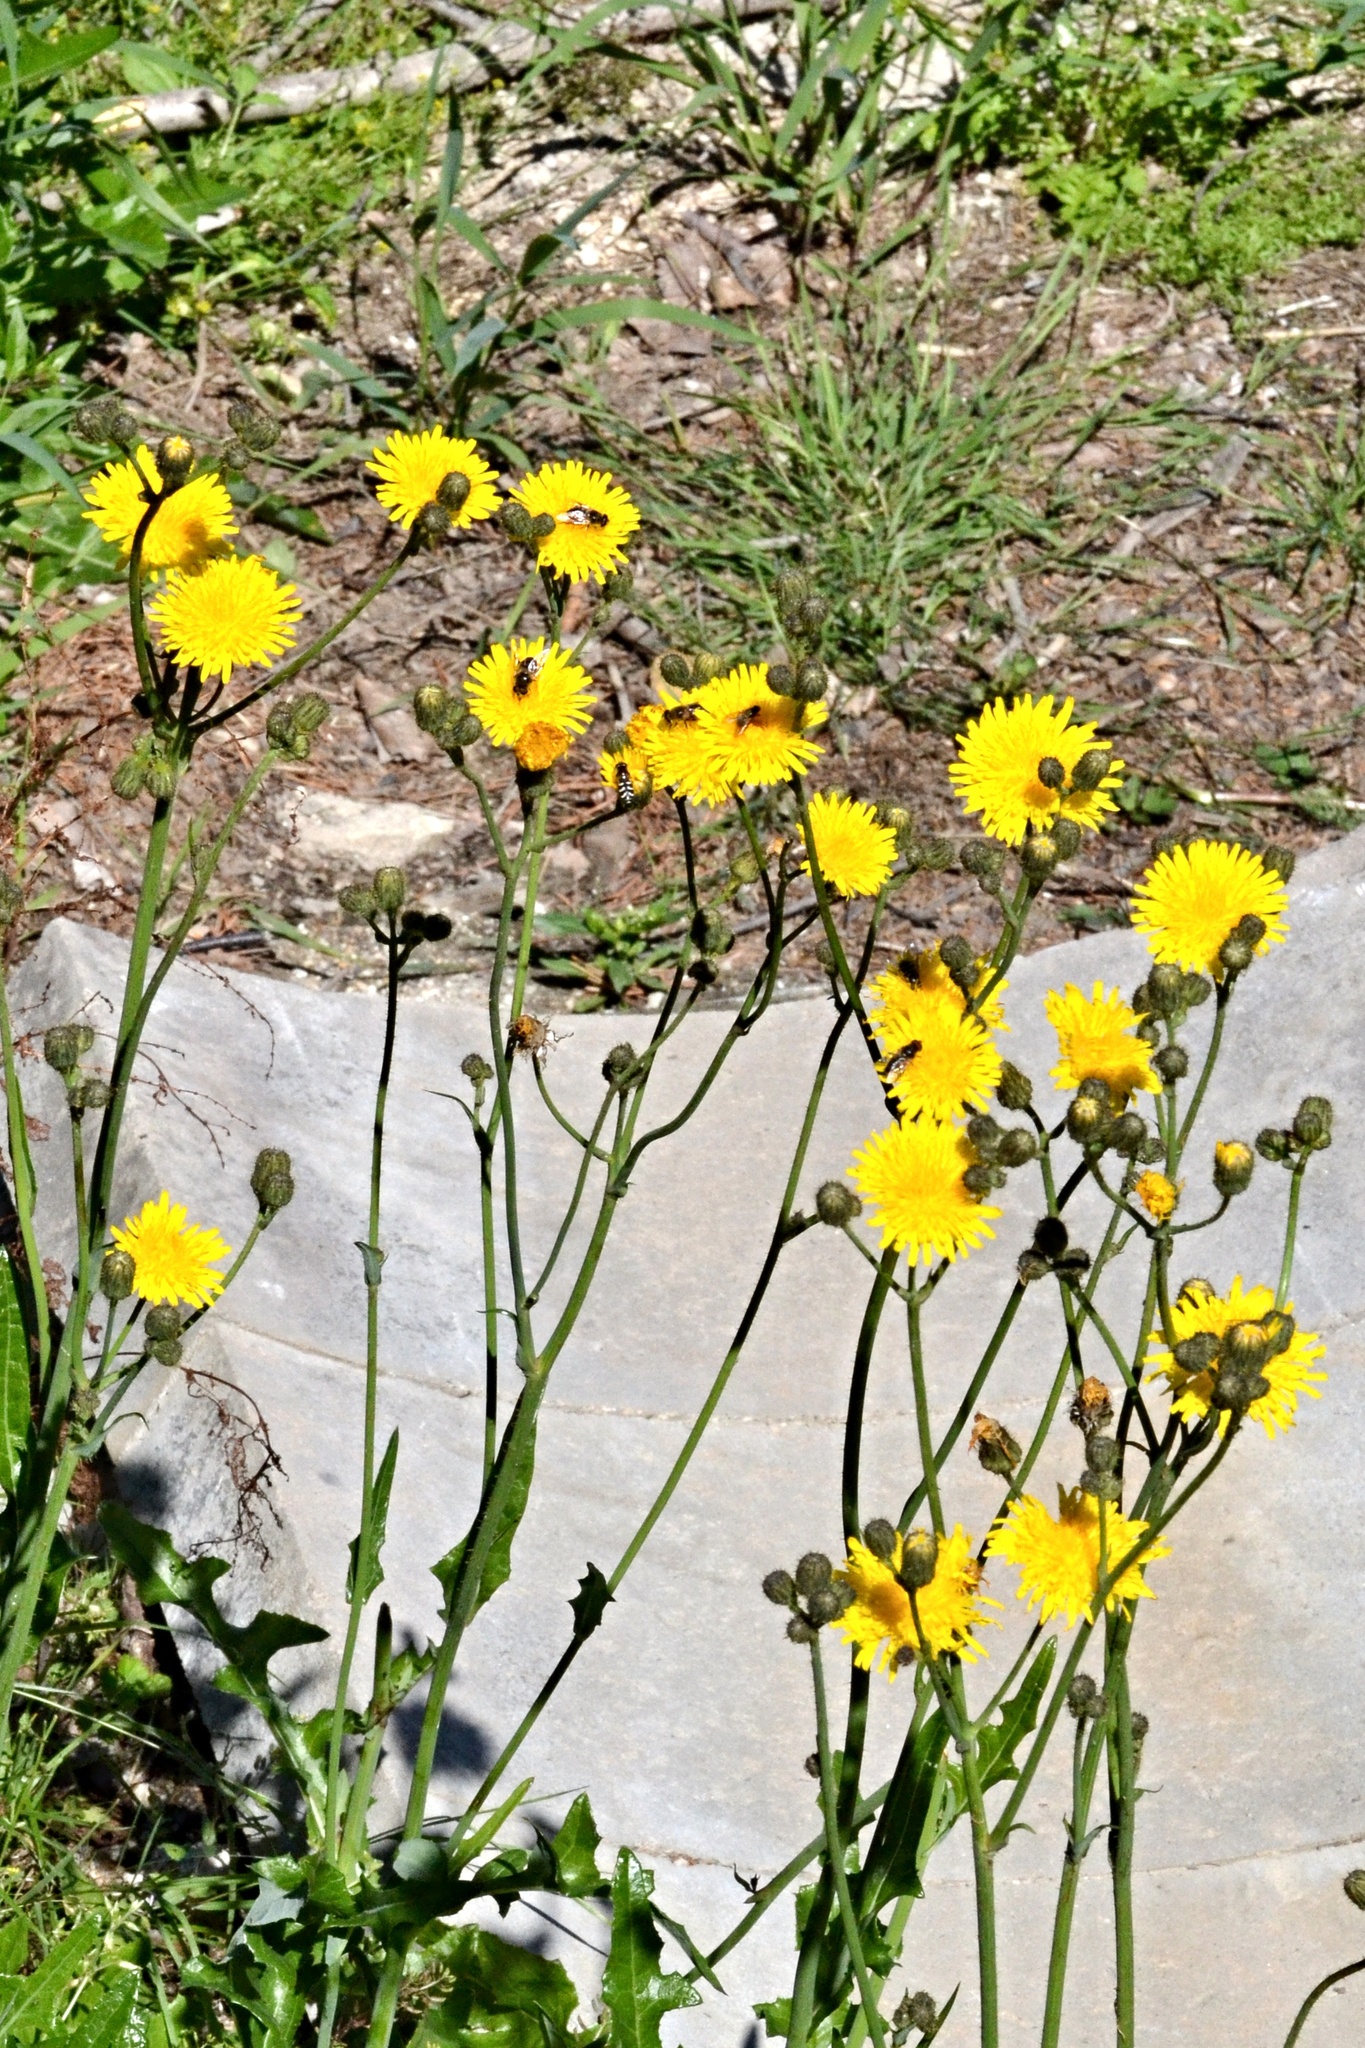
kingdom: Plantae
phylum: Tracheophyta
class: Magnoliopsida
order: Asterales
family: Asteraceae
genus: Sonchus
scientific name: Sonchus arvensis
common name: Perennial sow-thistle
